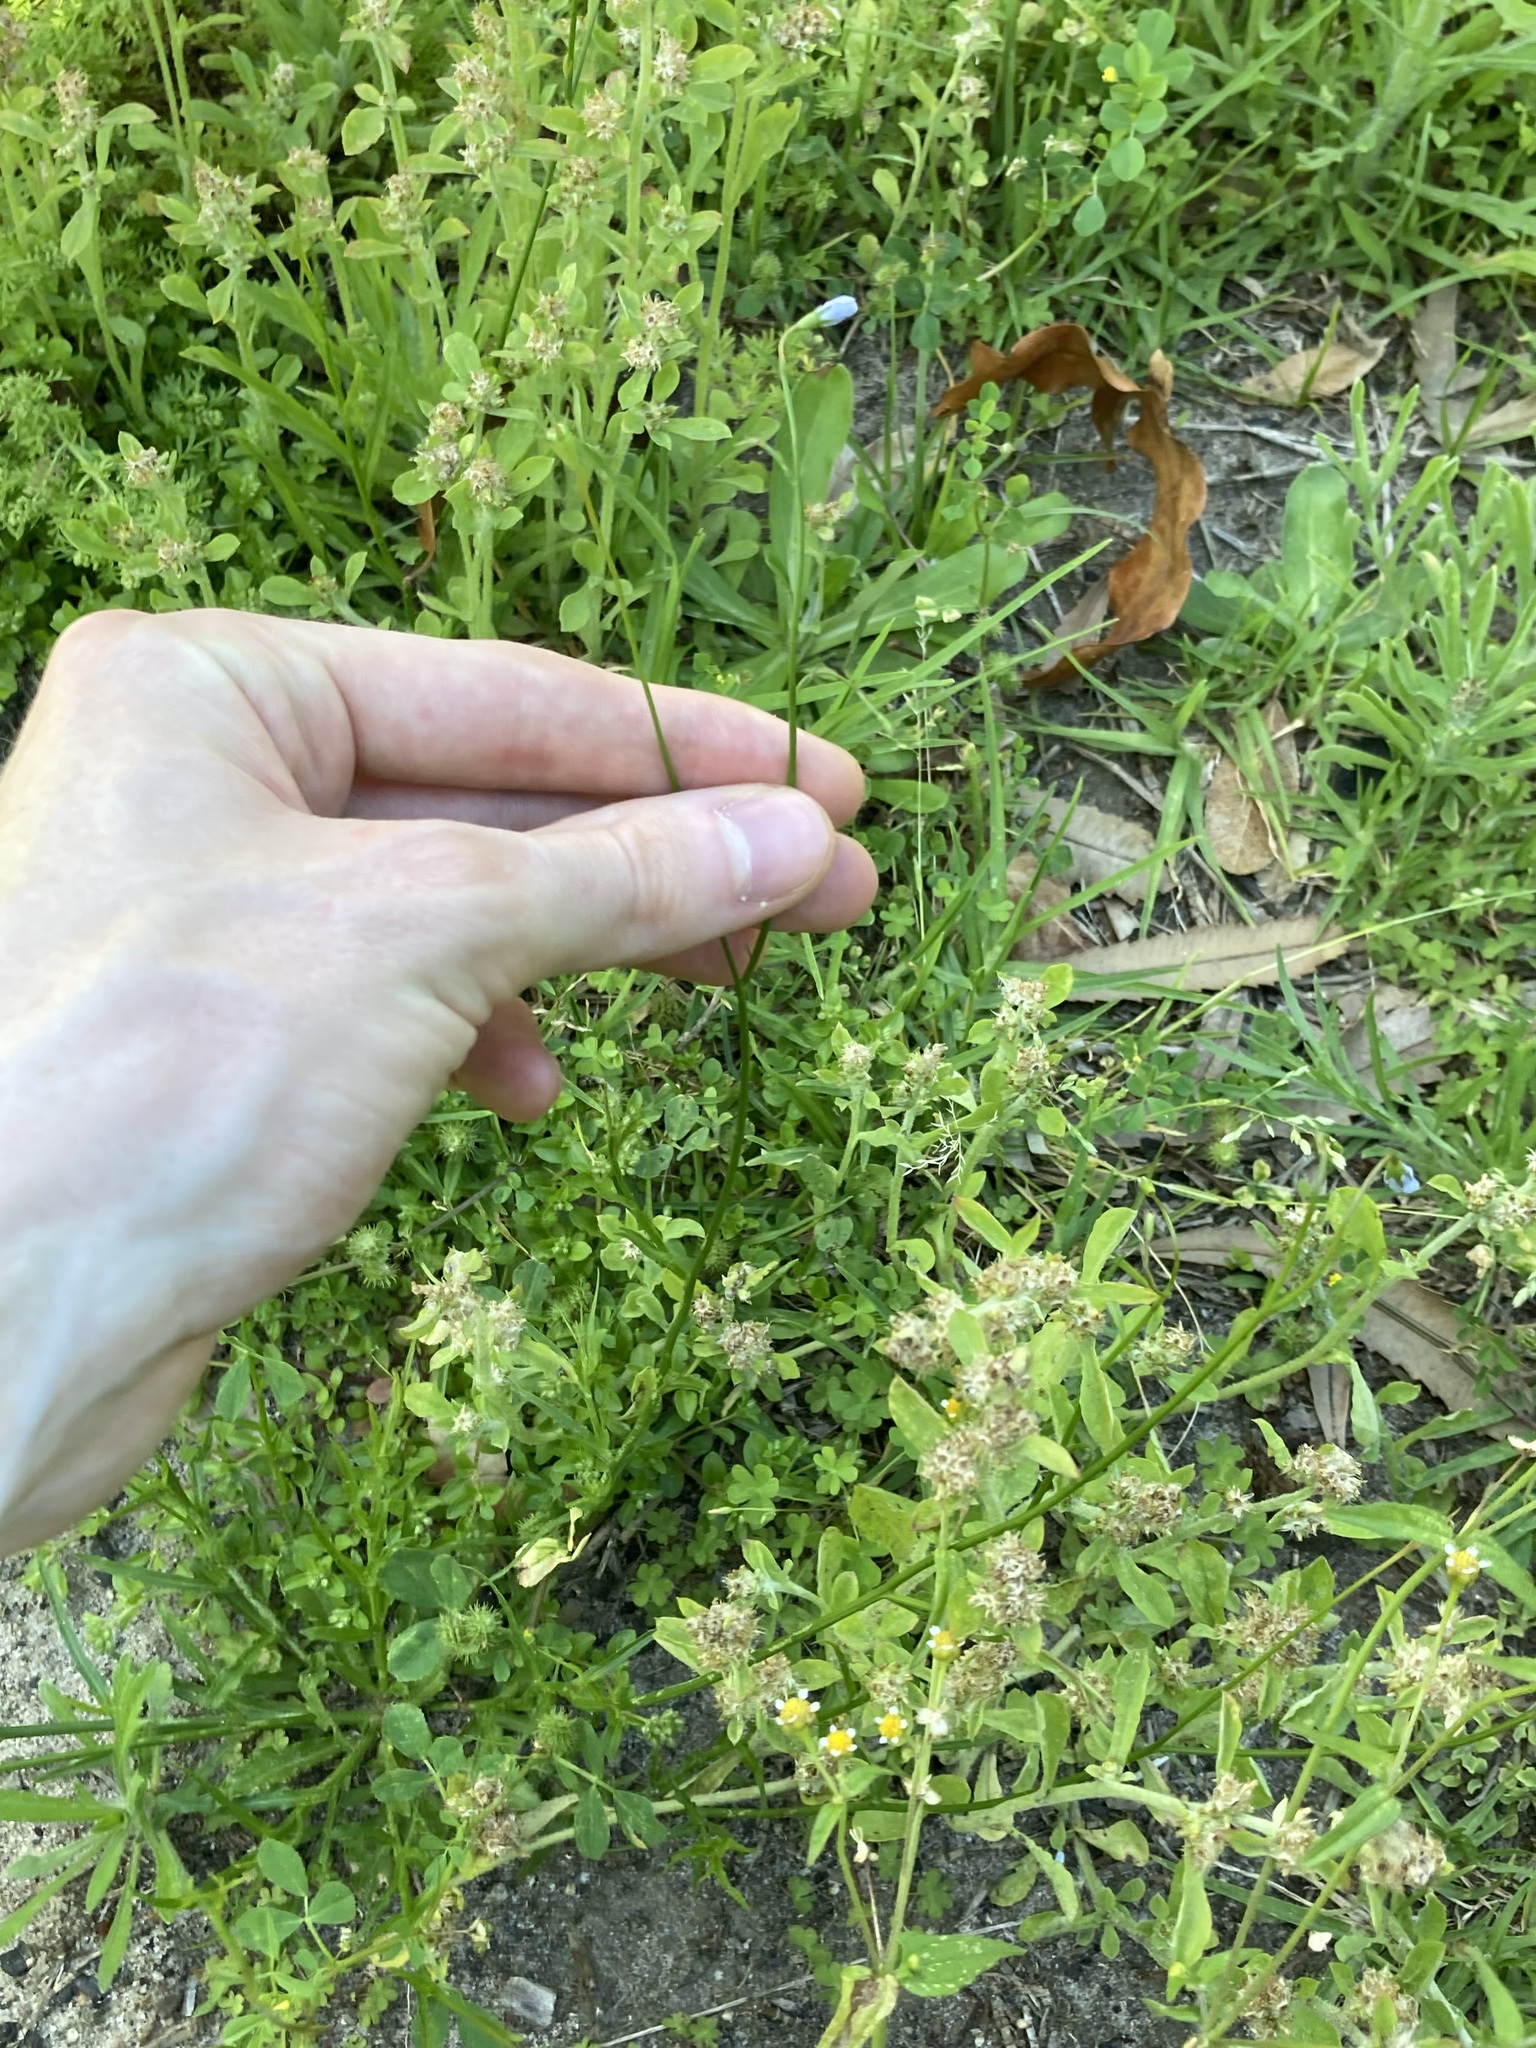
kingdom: Plantae
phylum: Tracheophyta
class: Magnoliopsida
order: Asterales
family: Campanulaceae
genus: Wahlenbergia
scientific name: Wahlenbergia gracilis
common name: Harebell
